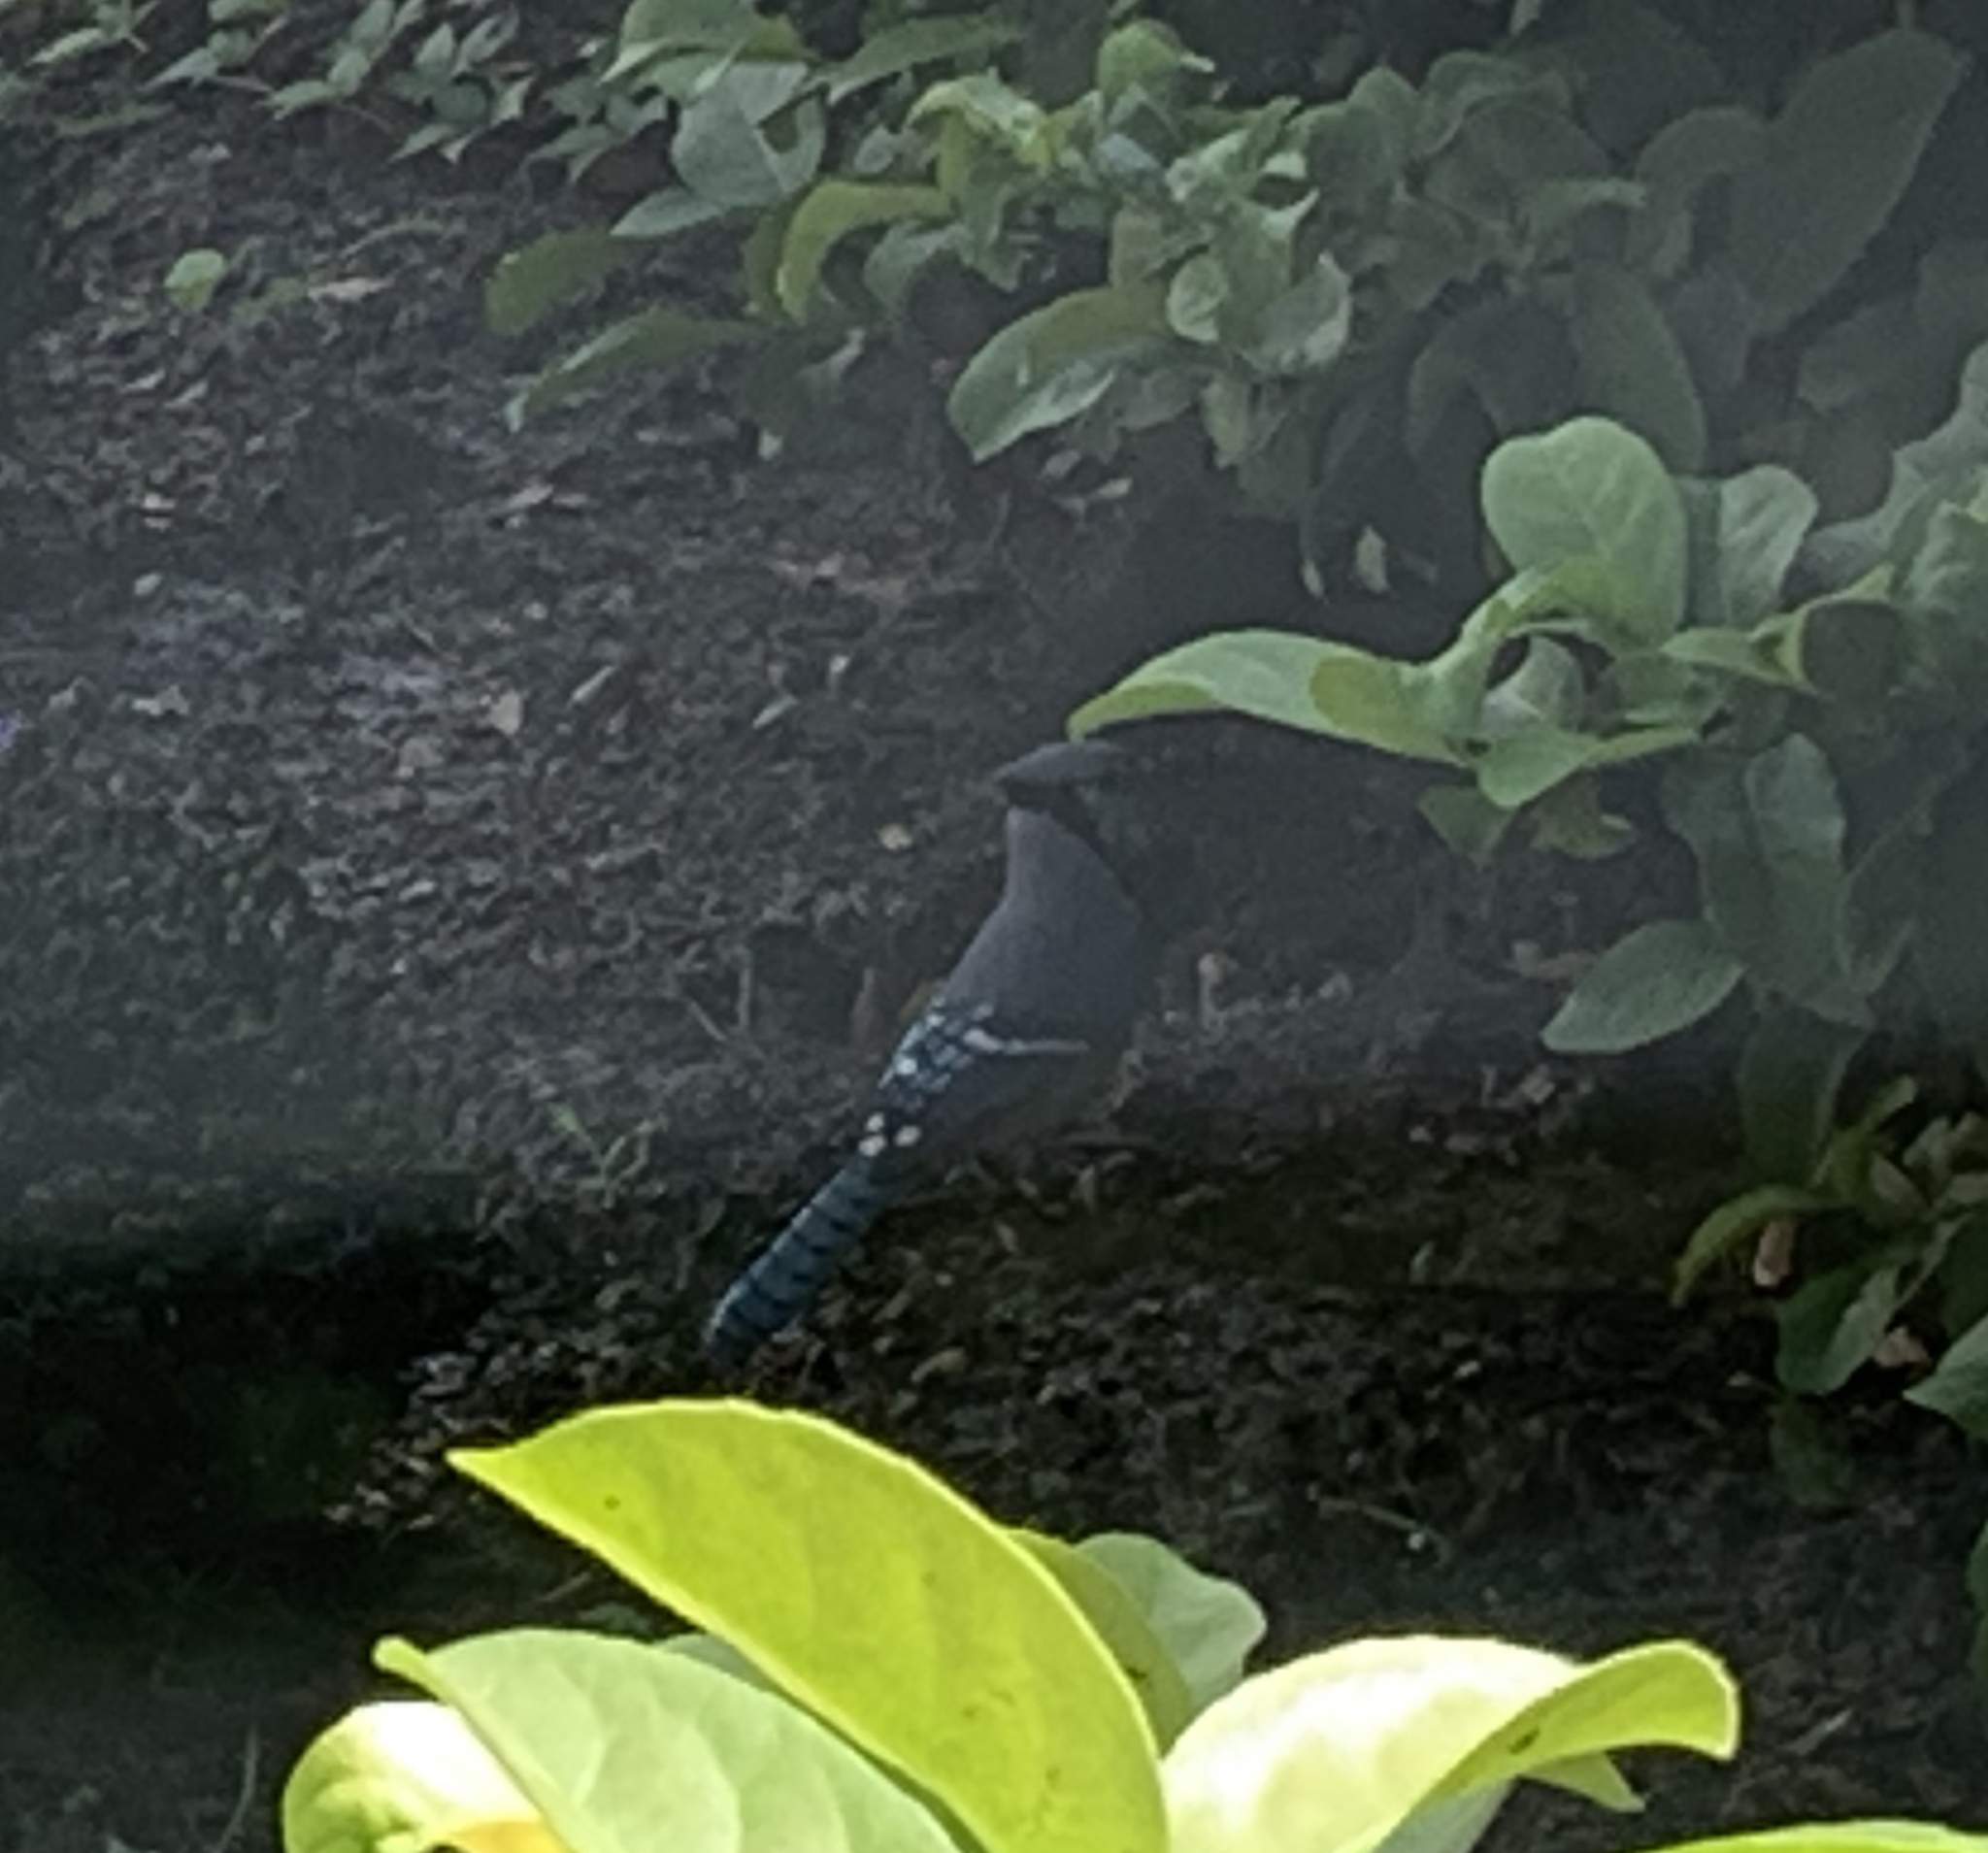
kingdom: Animalia
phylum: Chordata
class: Aves
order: Passeriformes
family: Corvidae
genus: Cyanocitta
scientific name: Cyanocitta cristata
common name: Blue jay
